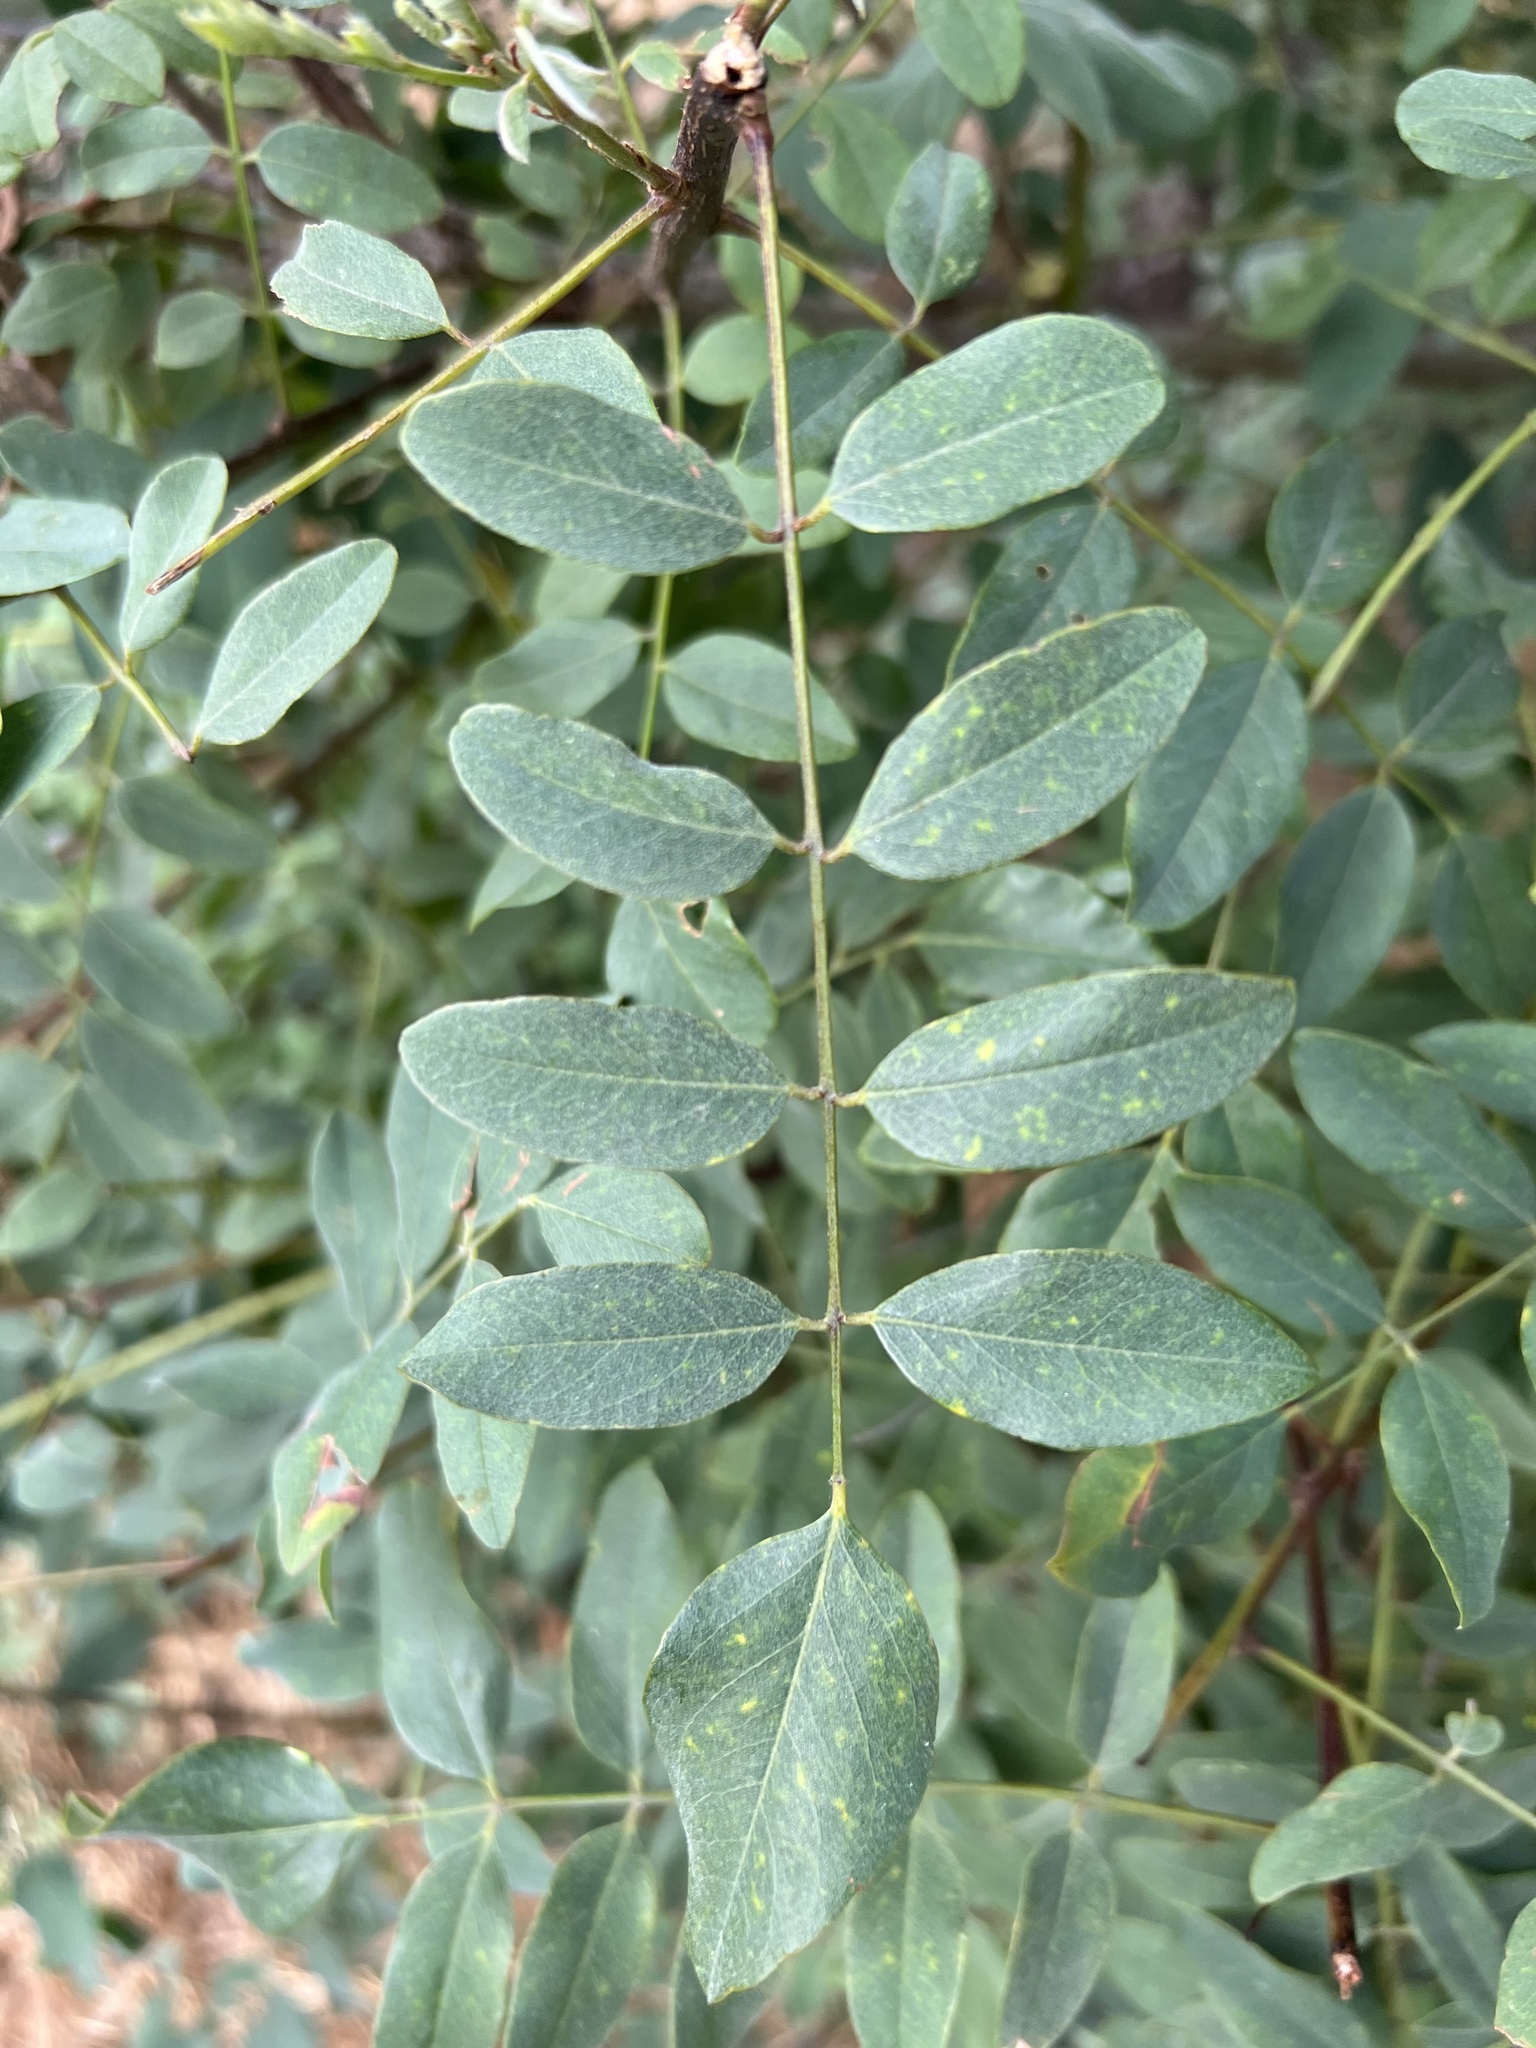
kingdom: Plantae
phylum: Tracheophyta
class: Magnoliopsida
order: Fabales
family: Fabaceae
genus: Amorpha
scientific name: Amorpha fruticosa
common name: False indigo
